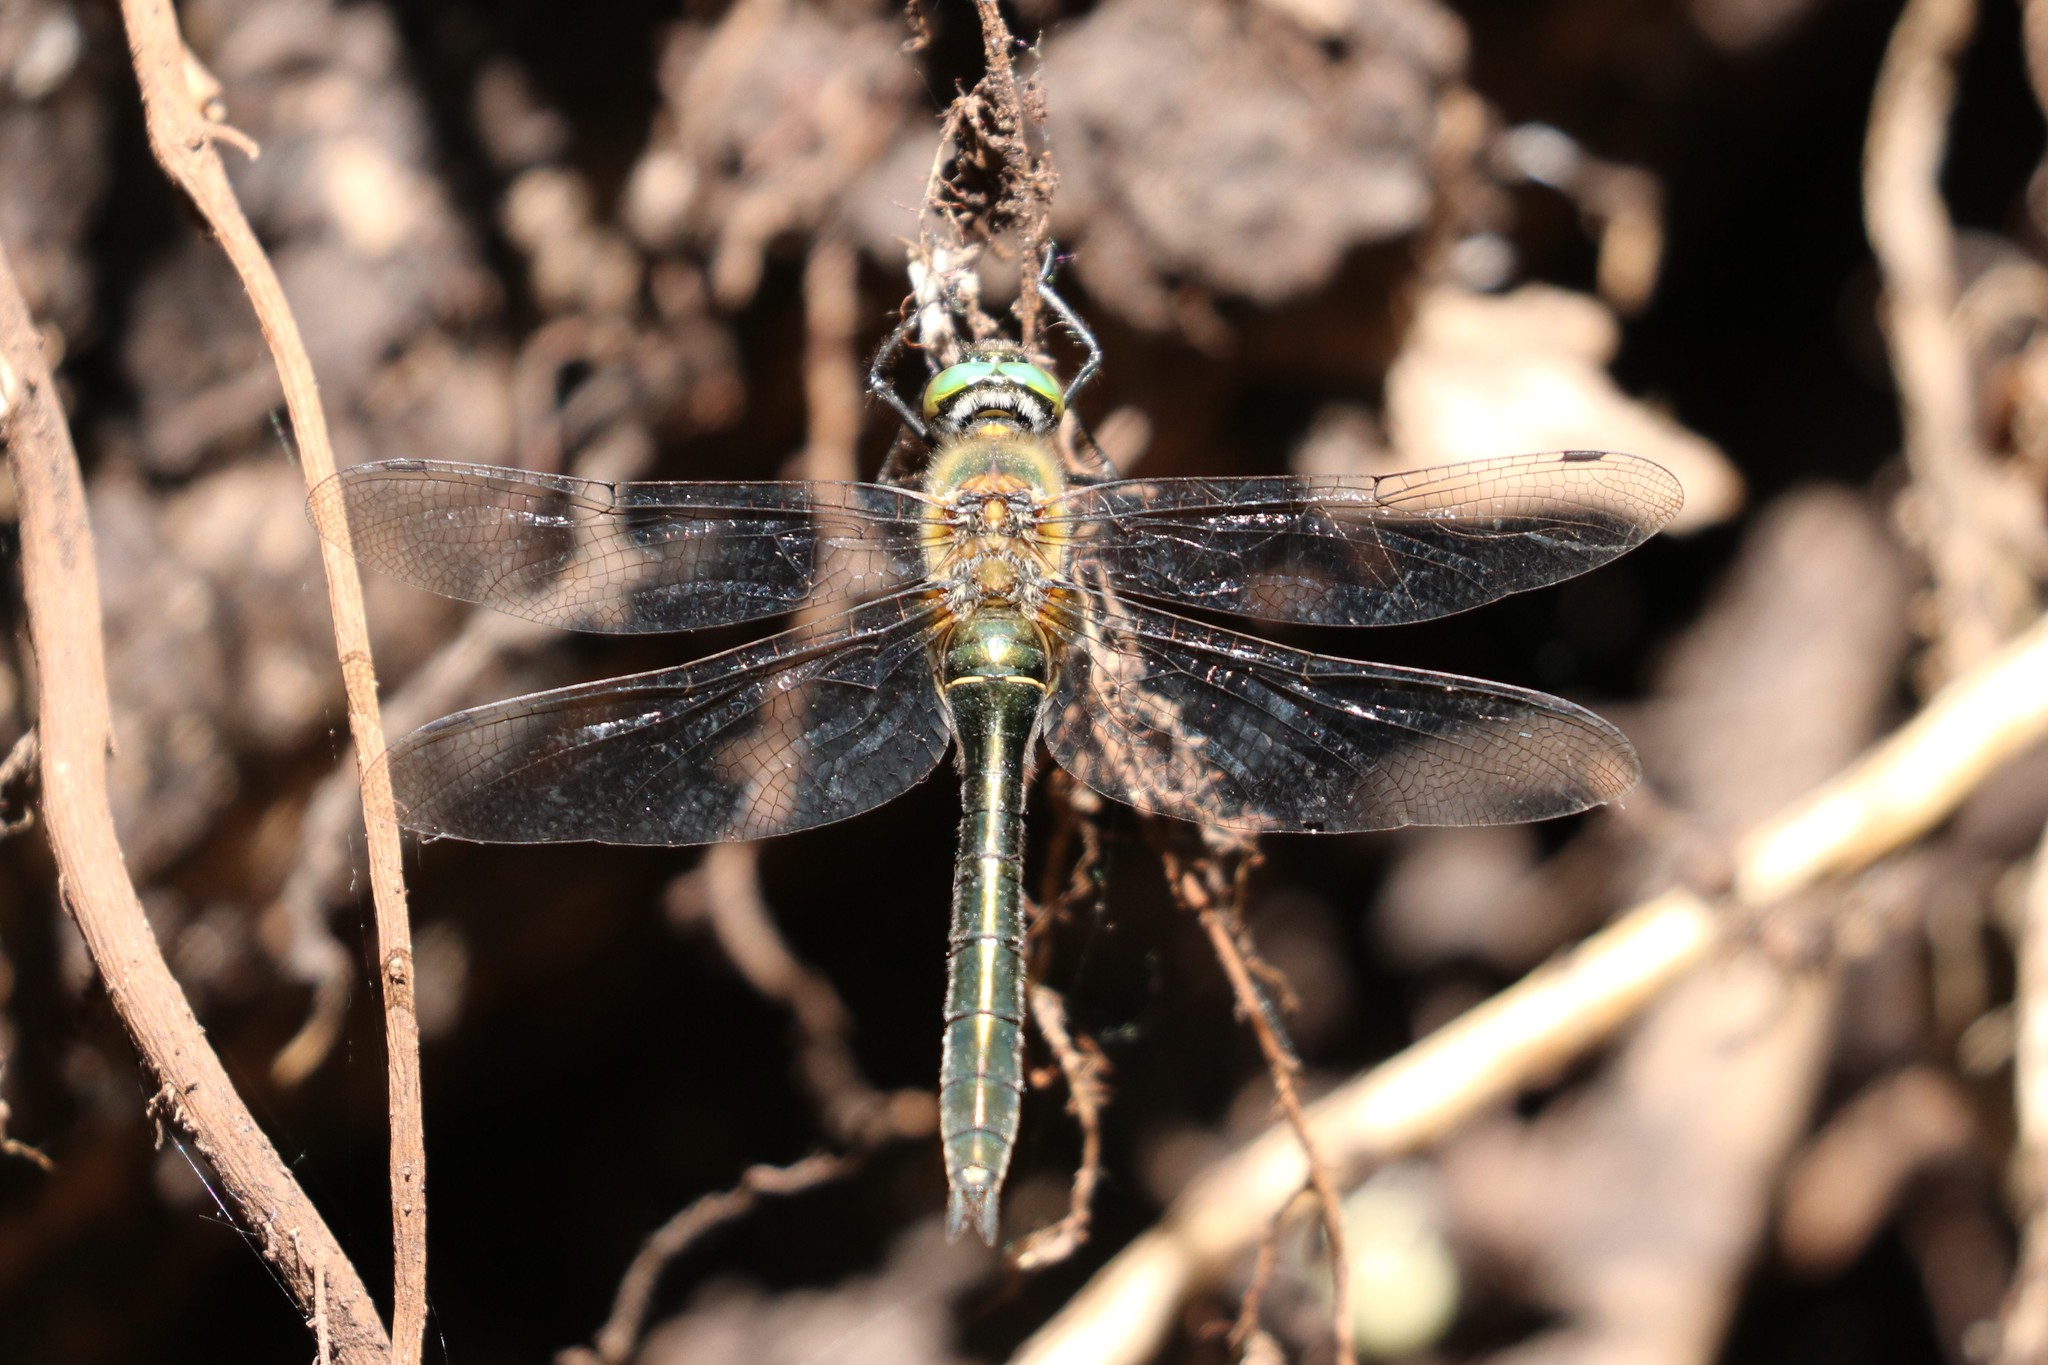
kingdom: Animalia
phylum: Arthropoda
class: Insecta
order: Odonata
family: Corduliidae
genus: Cordulia
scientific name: Cordulia aenea
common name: Downy emerald
